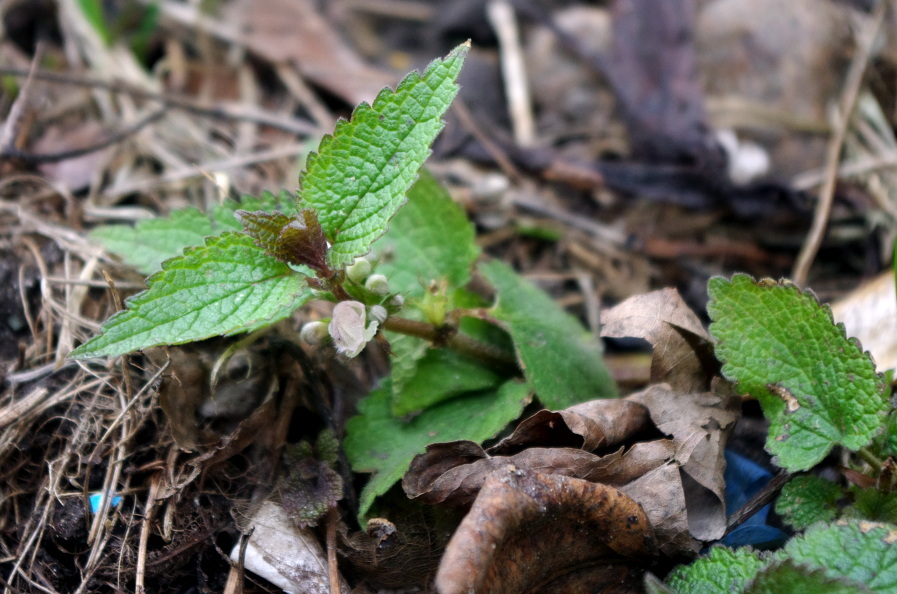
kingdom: Plantae
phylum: Tracheophyta
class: Magnoliopsida
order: Lamiales
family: Lamiaceae
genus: Lamium
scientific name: Lamium album
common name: White dead-nettle
